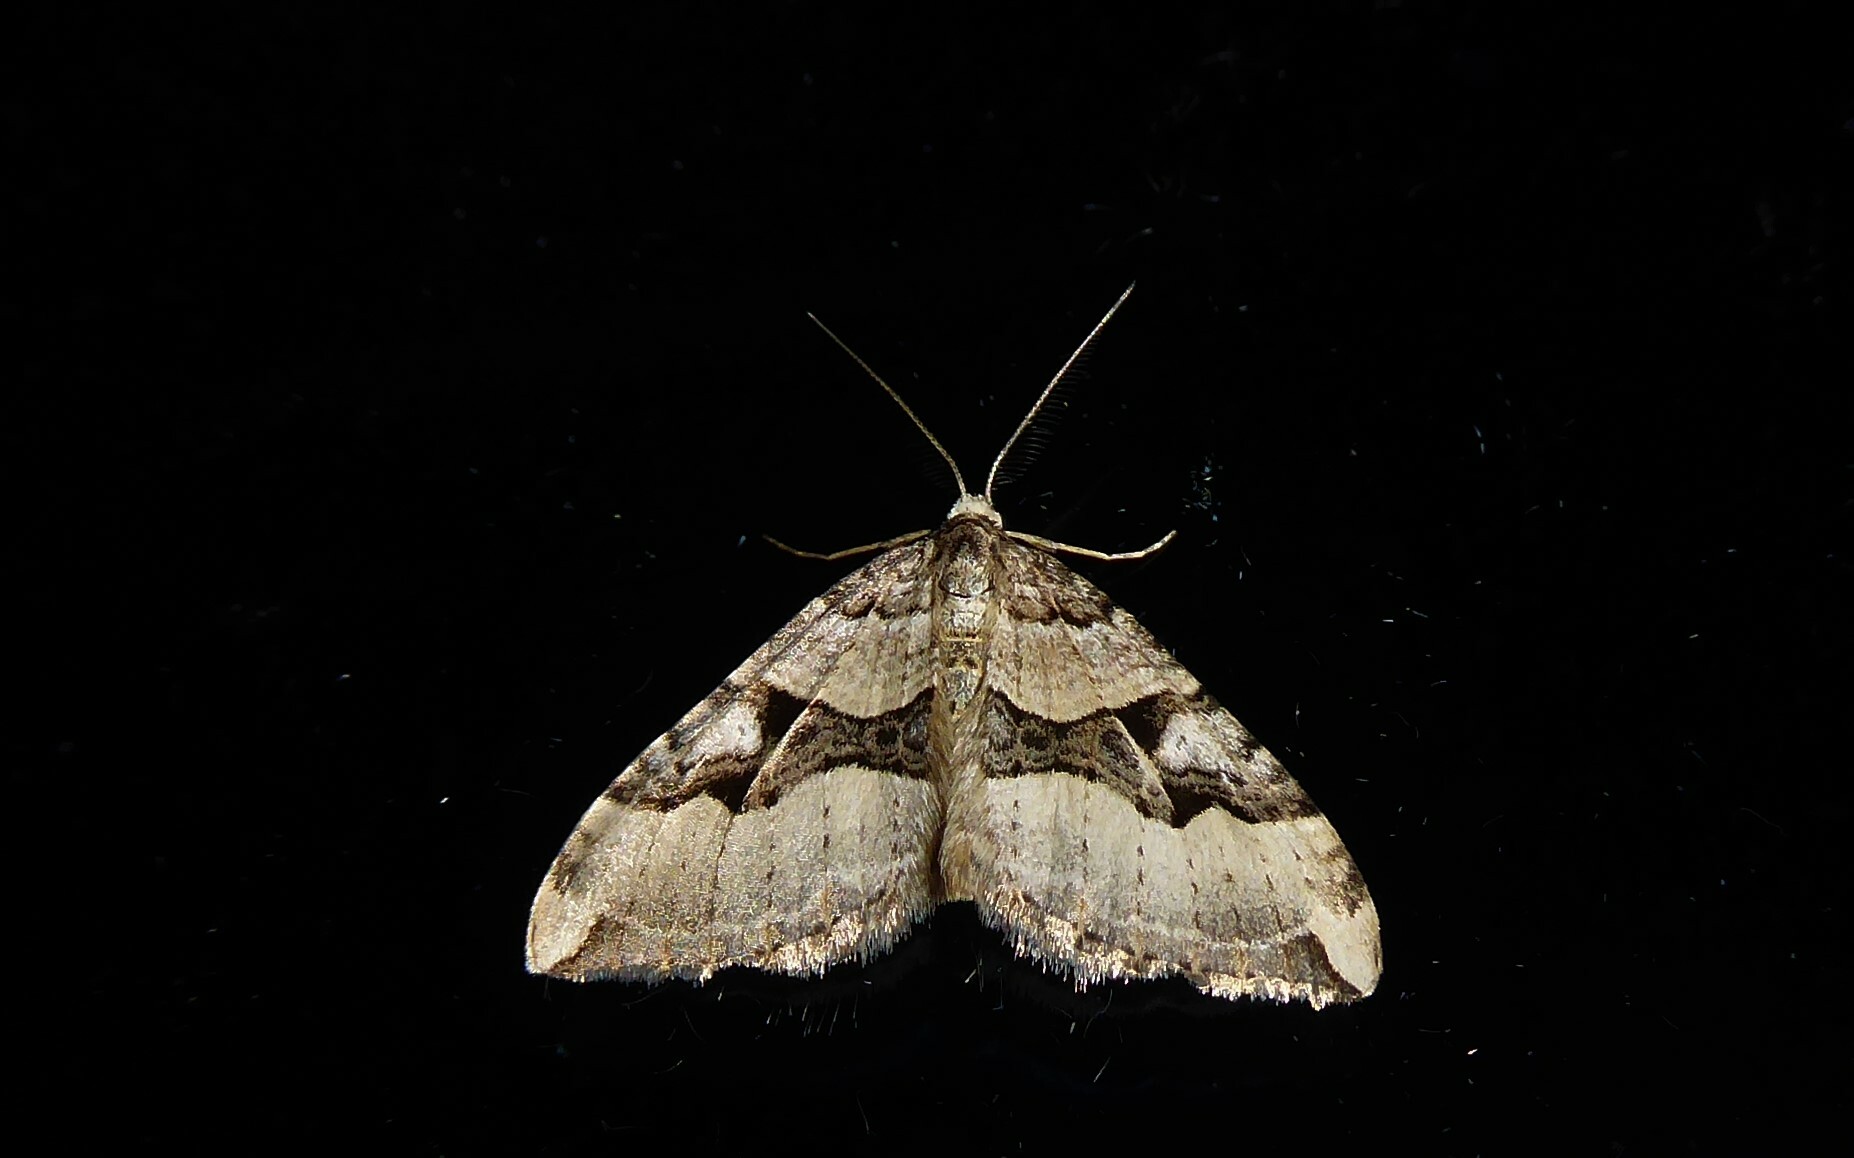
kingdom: Animalia
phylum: Arthropoda
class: Insecta
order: Lepidoptera
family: Geometridae
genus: Xanthorhoe
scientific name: Xanthorhoe semifissata
